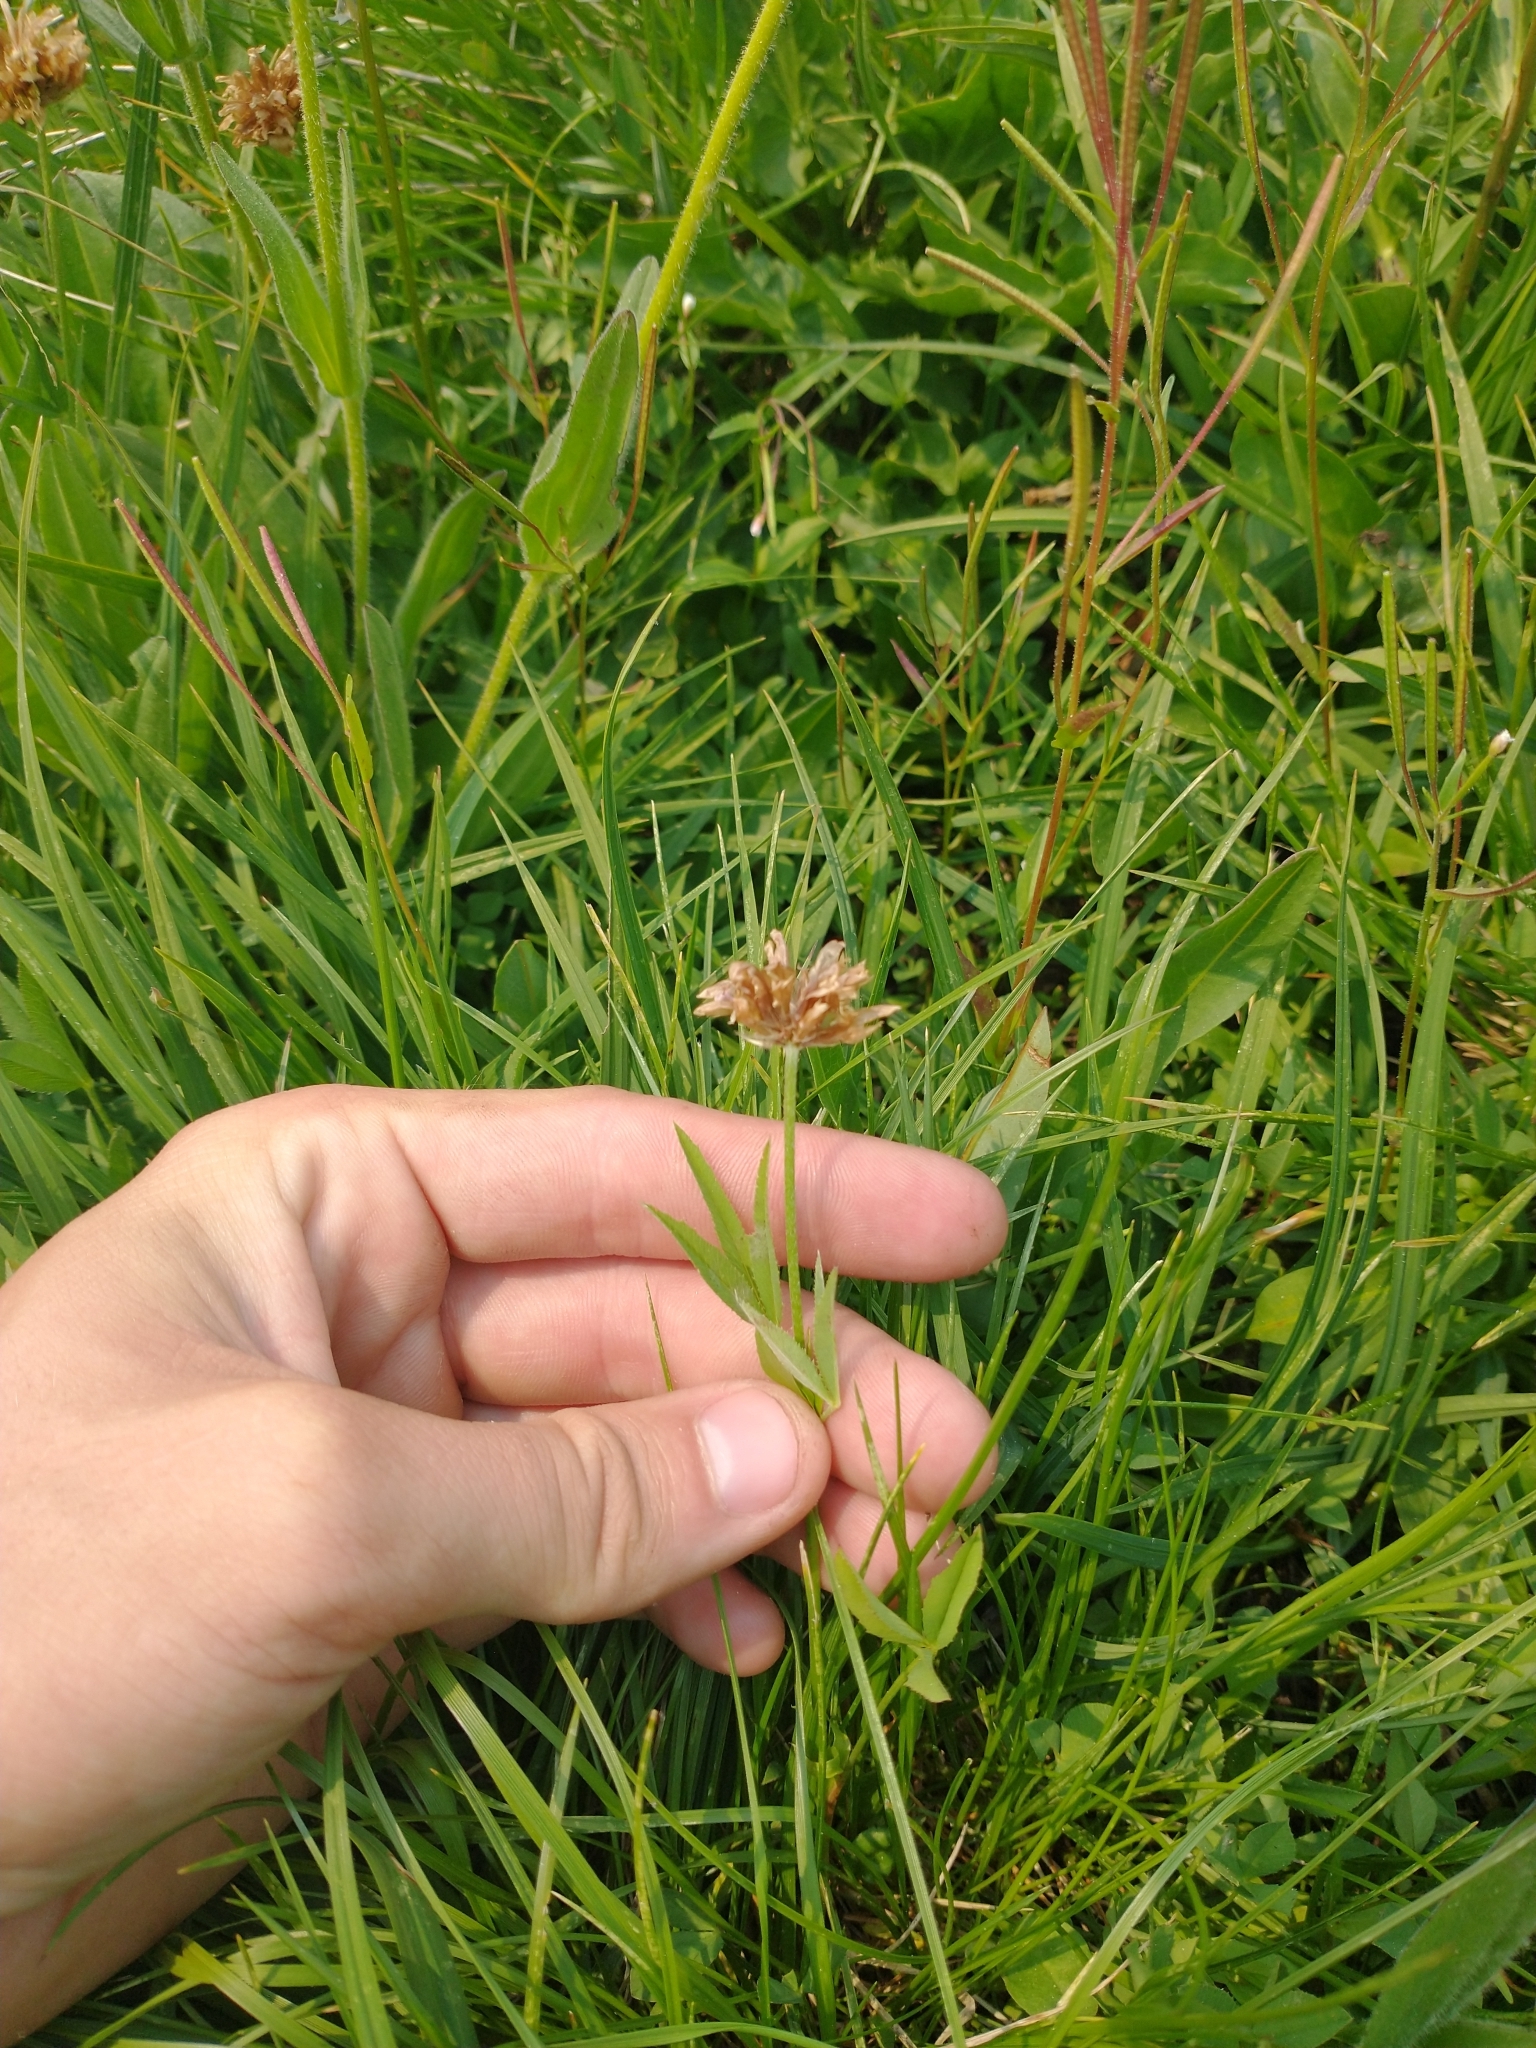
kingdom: Plantae
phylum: Tracheophyta
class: Magnoliopsida
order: Fabales
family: Fabaceae
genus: Trifolium
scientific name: Trifolium longipes
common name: Long-stalk clover
